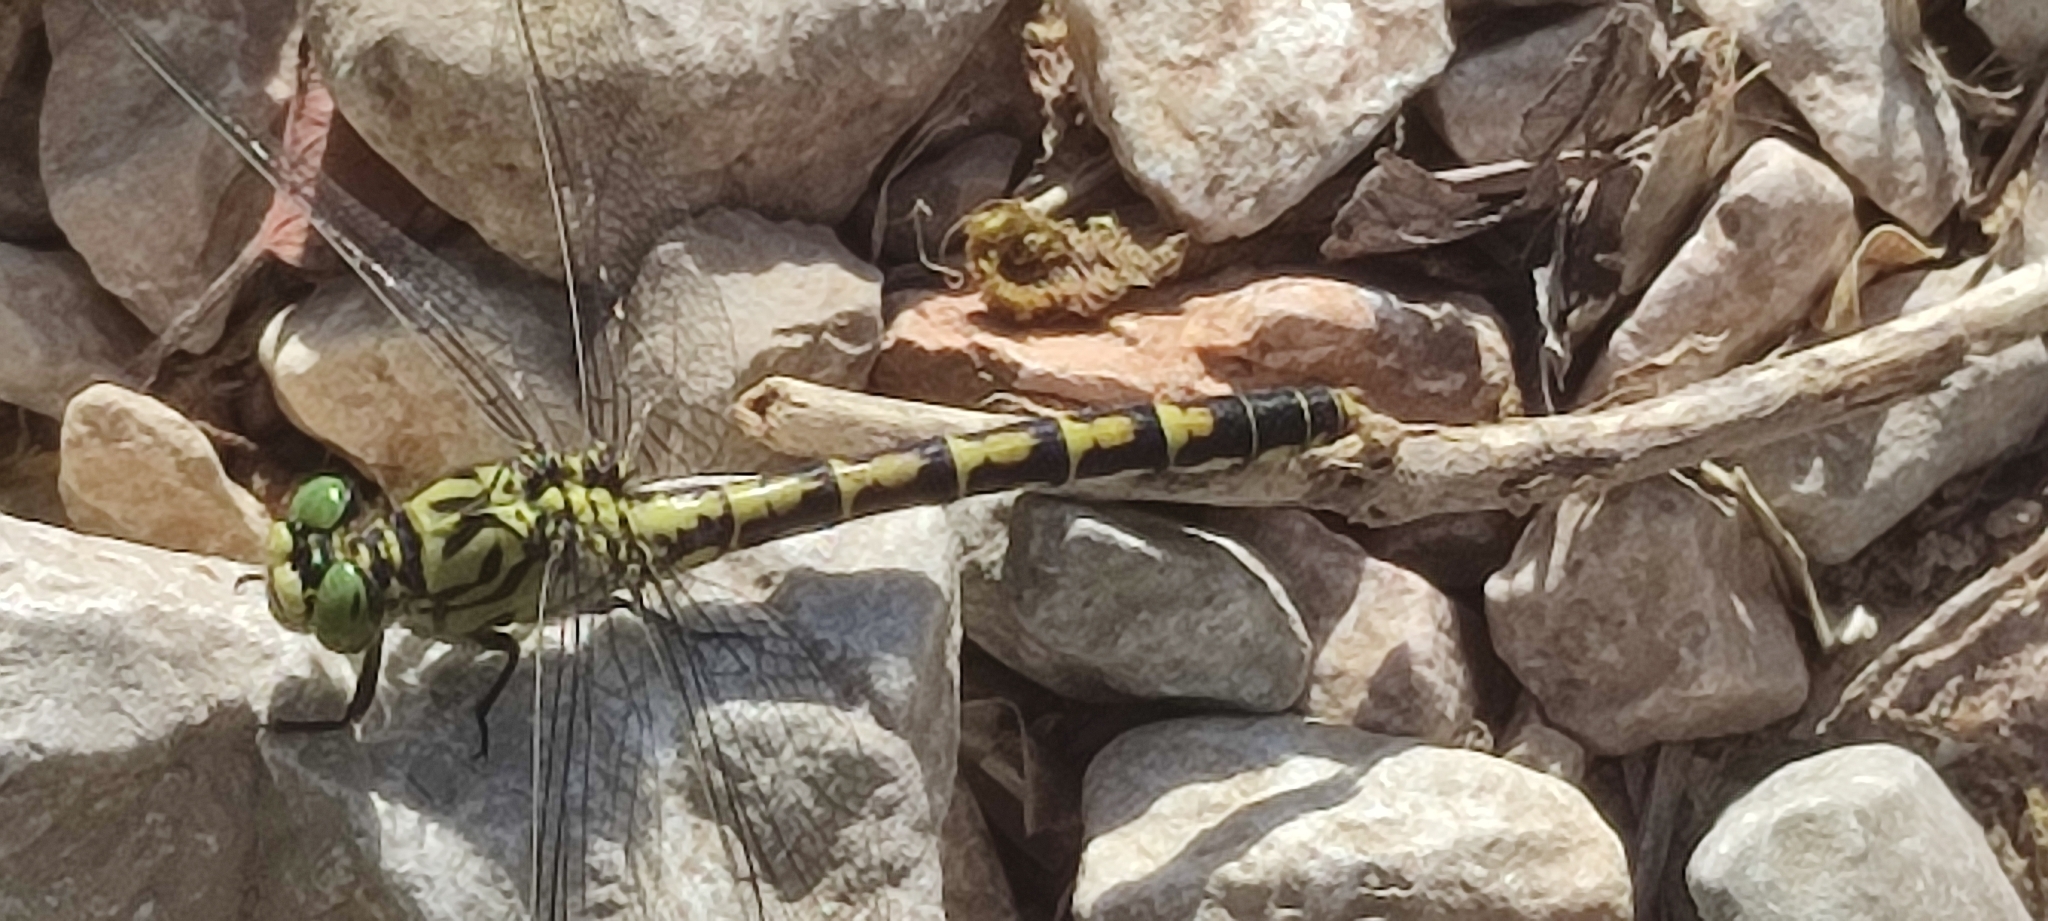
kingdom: Animalia
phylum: Arthropoda
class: Insecta
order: Odonata
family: Gomphidae
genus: Onychogomphus
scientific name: Onychogomphus forcipatus
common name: Small pincertail
